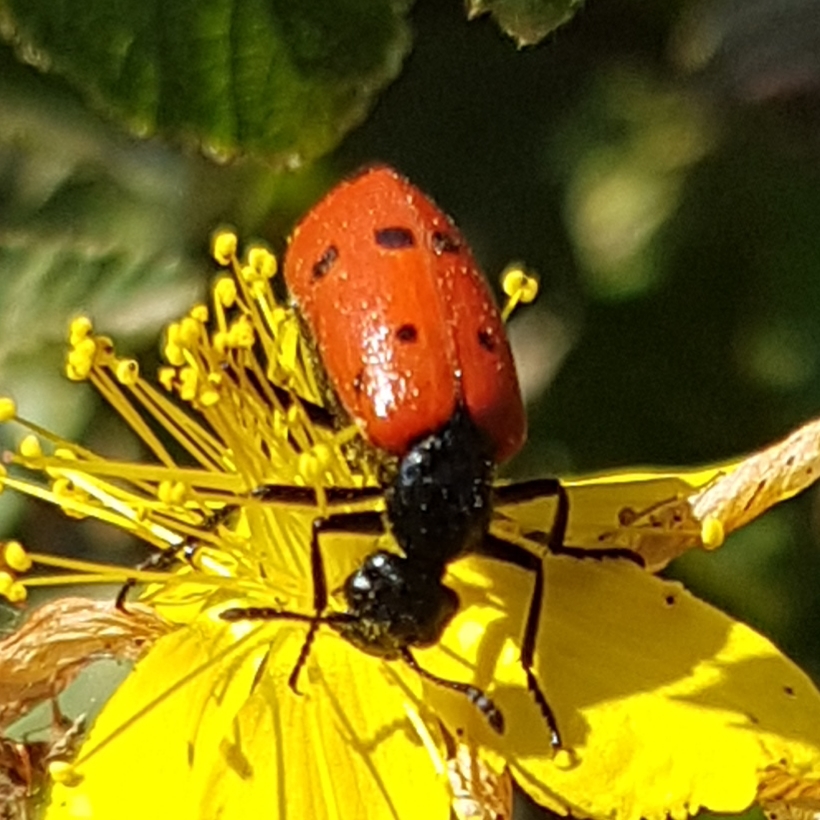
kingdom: Animalia
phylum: Arthropoda
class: Insecta
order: Coleoptera
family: Meloidae
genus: Mylabris
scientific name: Mylabris quadripunctata
